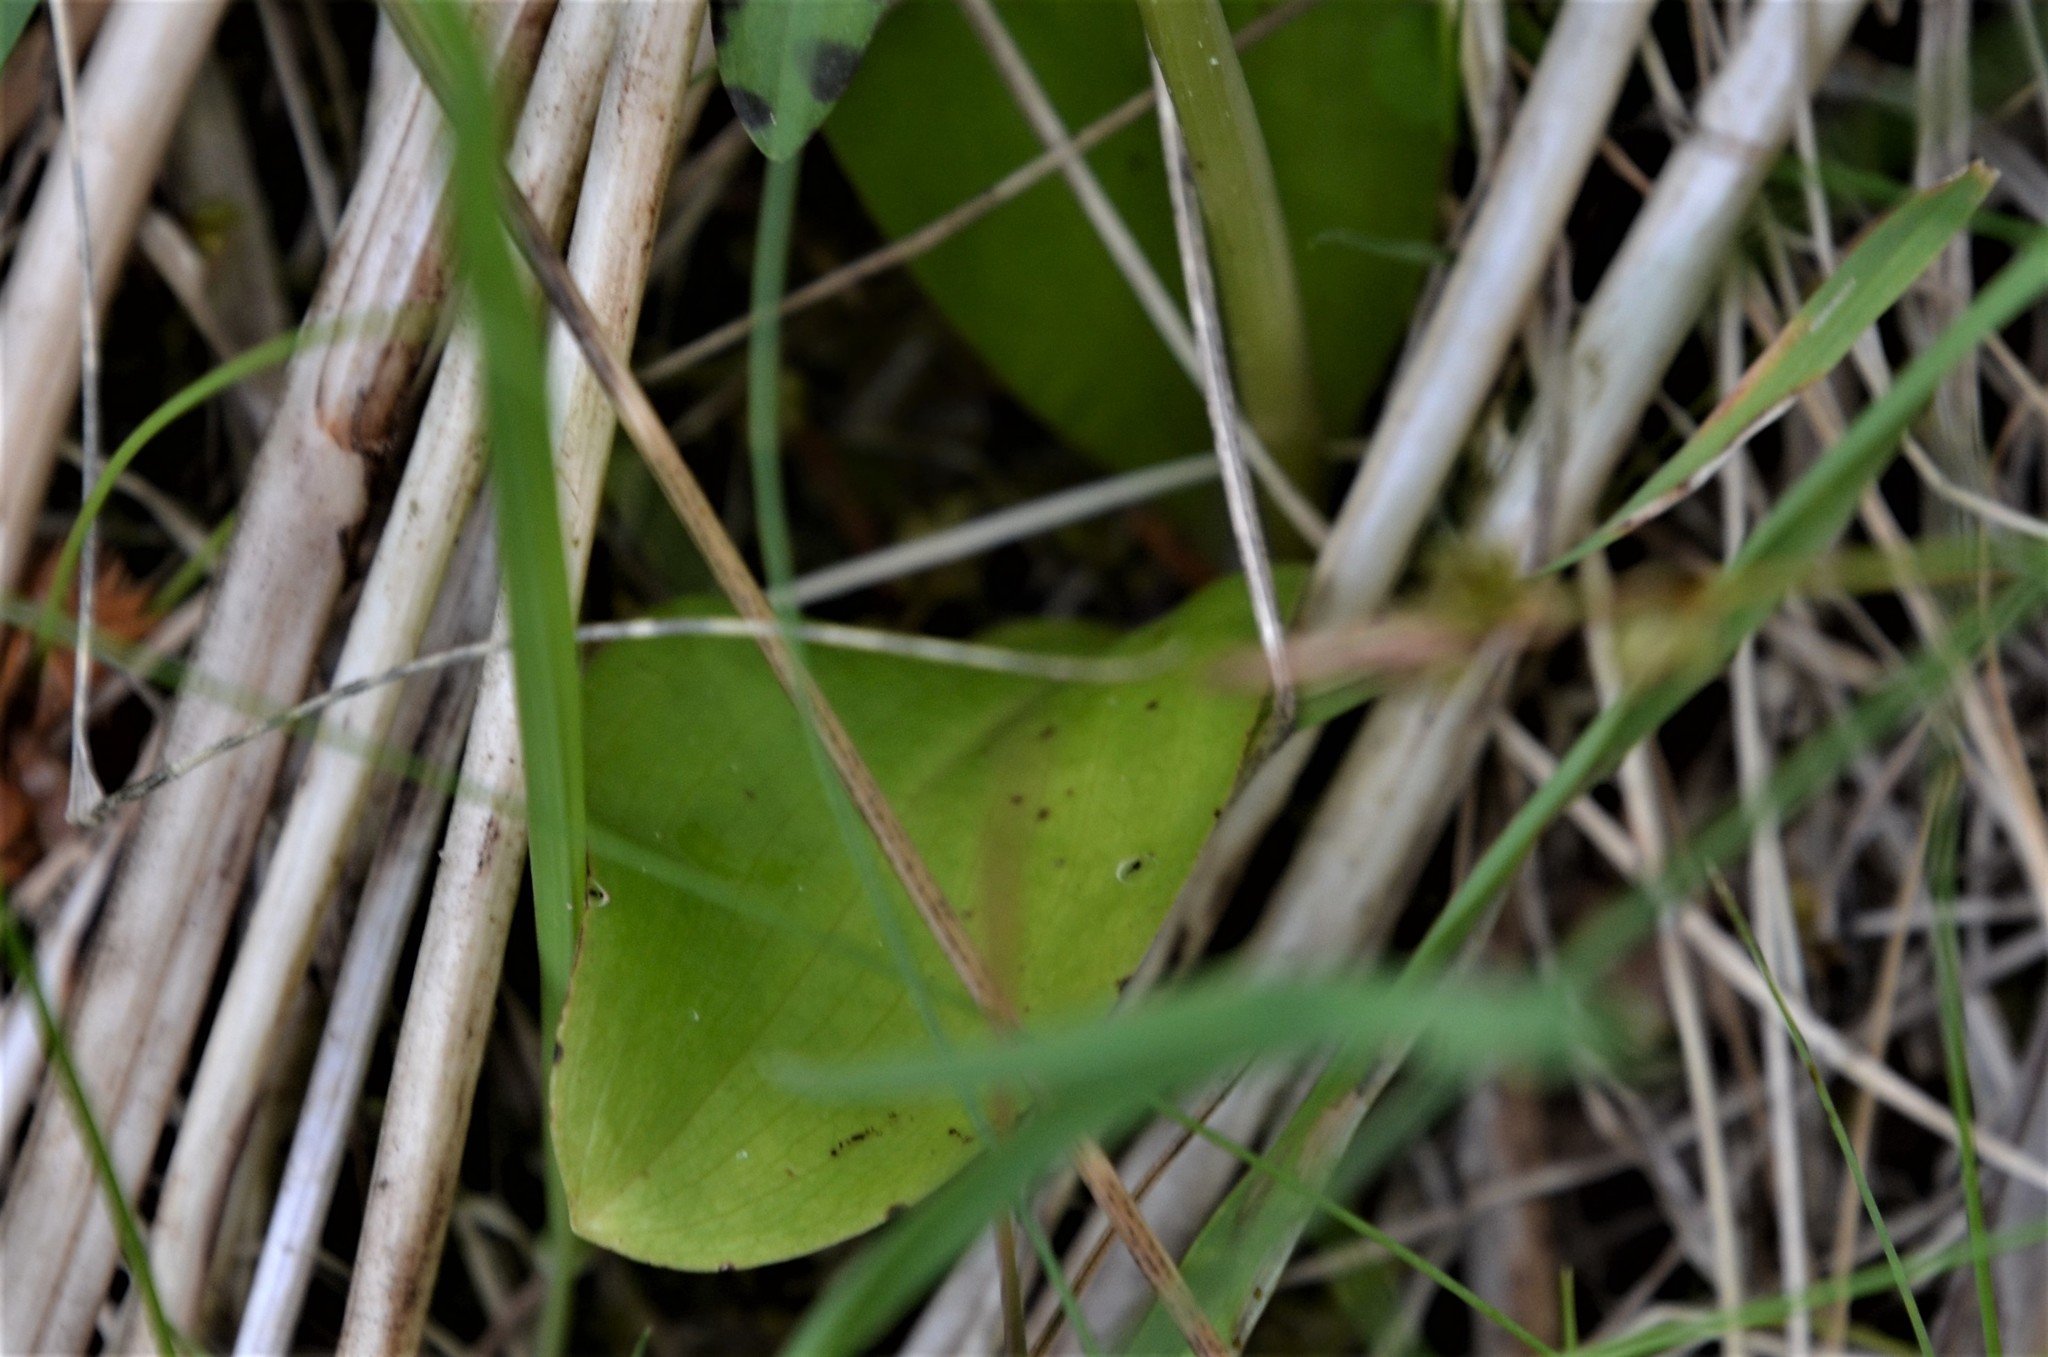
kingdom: Plantae
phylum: Tracheophyta
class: Liliopsida
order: Asparagales
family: Orchidaceae
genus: Platanthera
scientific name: Platanthera bifolia
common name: Lesser butterfly-orchid
